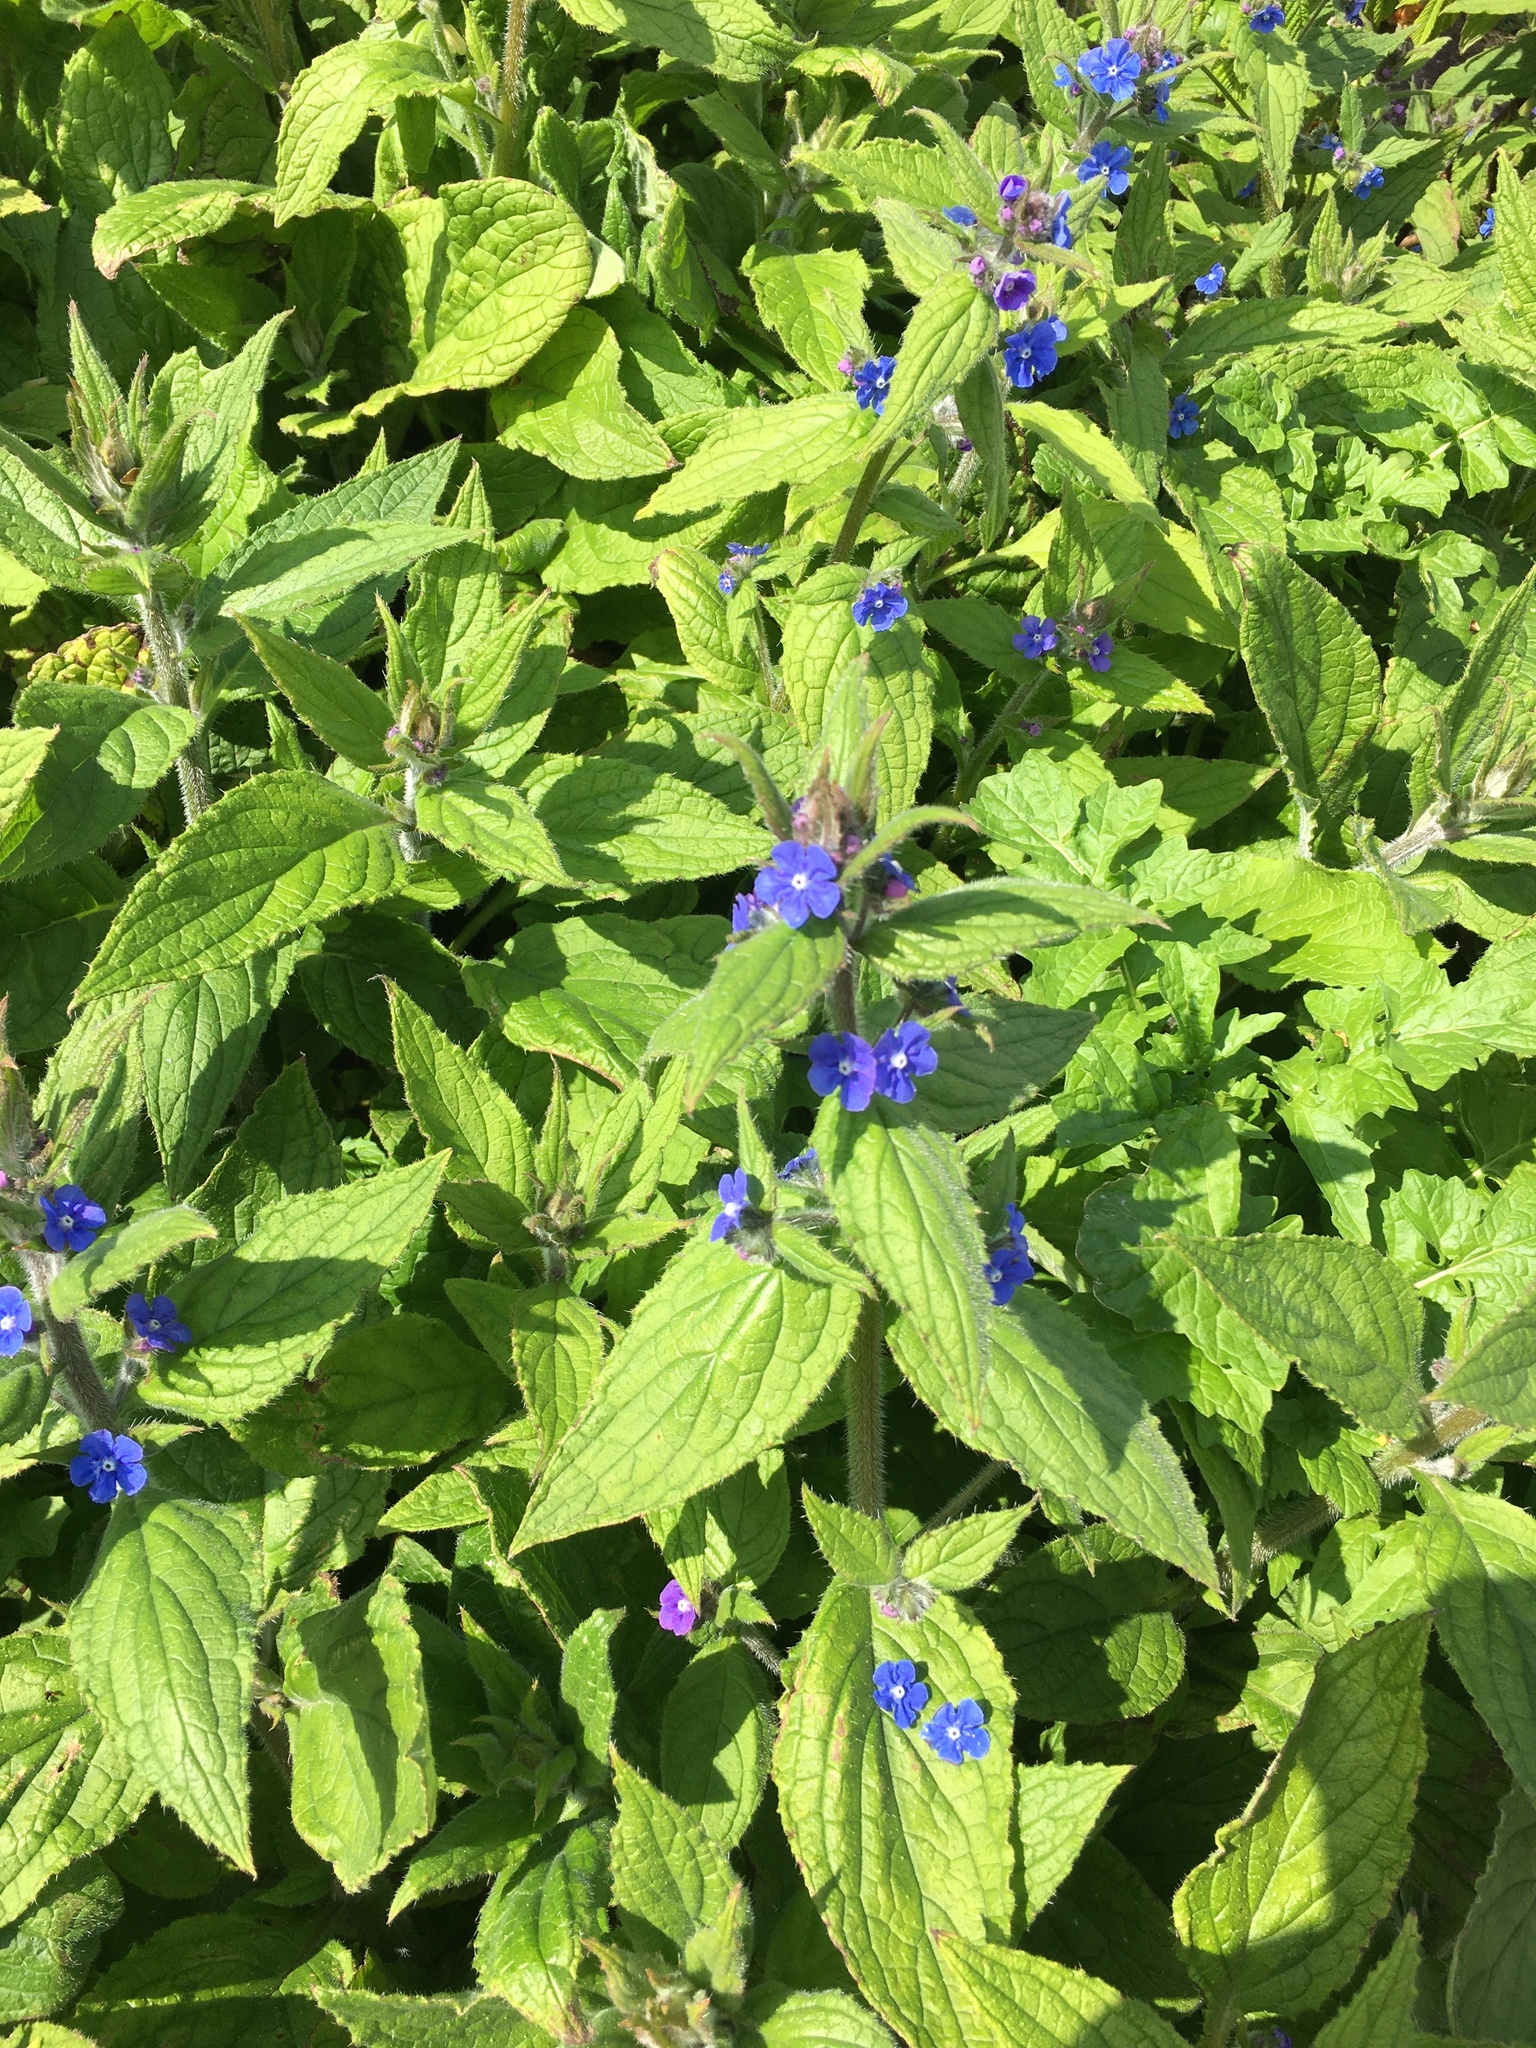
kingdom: Plantae
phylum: Tracheophyta
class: Magnoliopsida
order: Boraginales
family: Boraginaceae
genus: Pentaglottis
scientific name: Pentaglottis sempervirens
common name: Green alkanet
